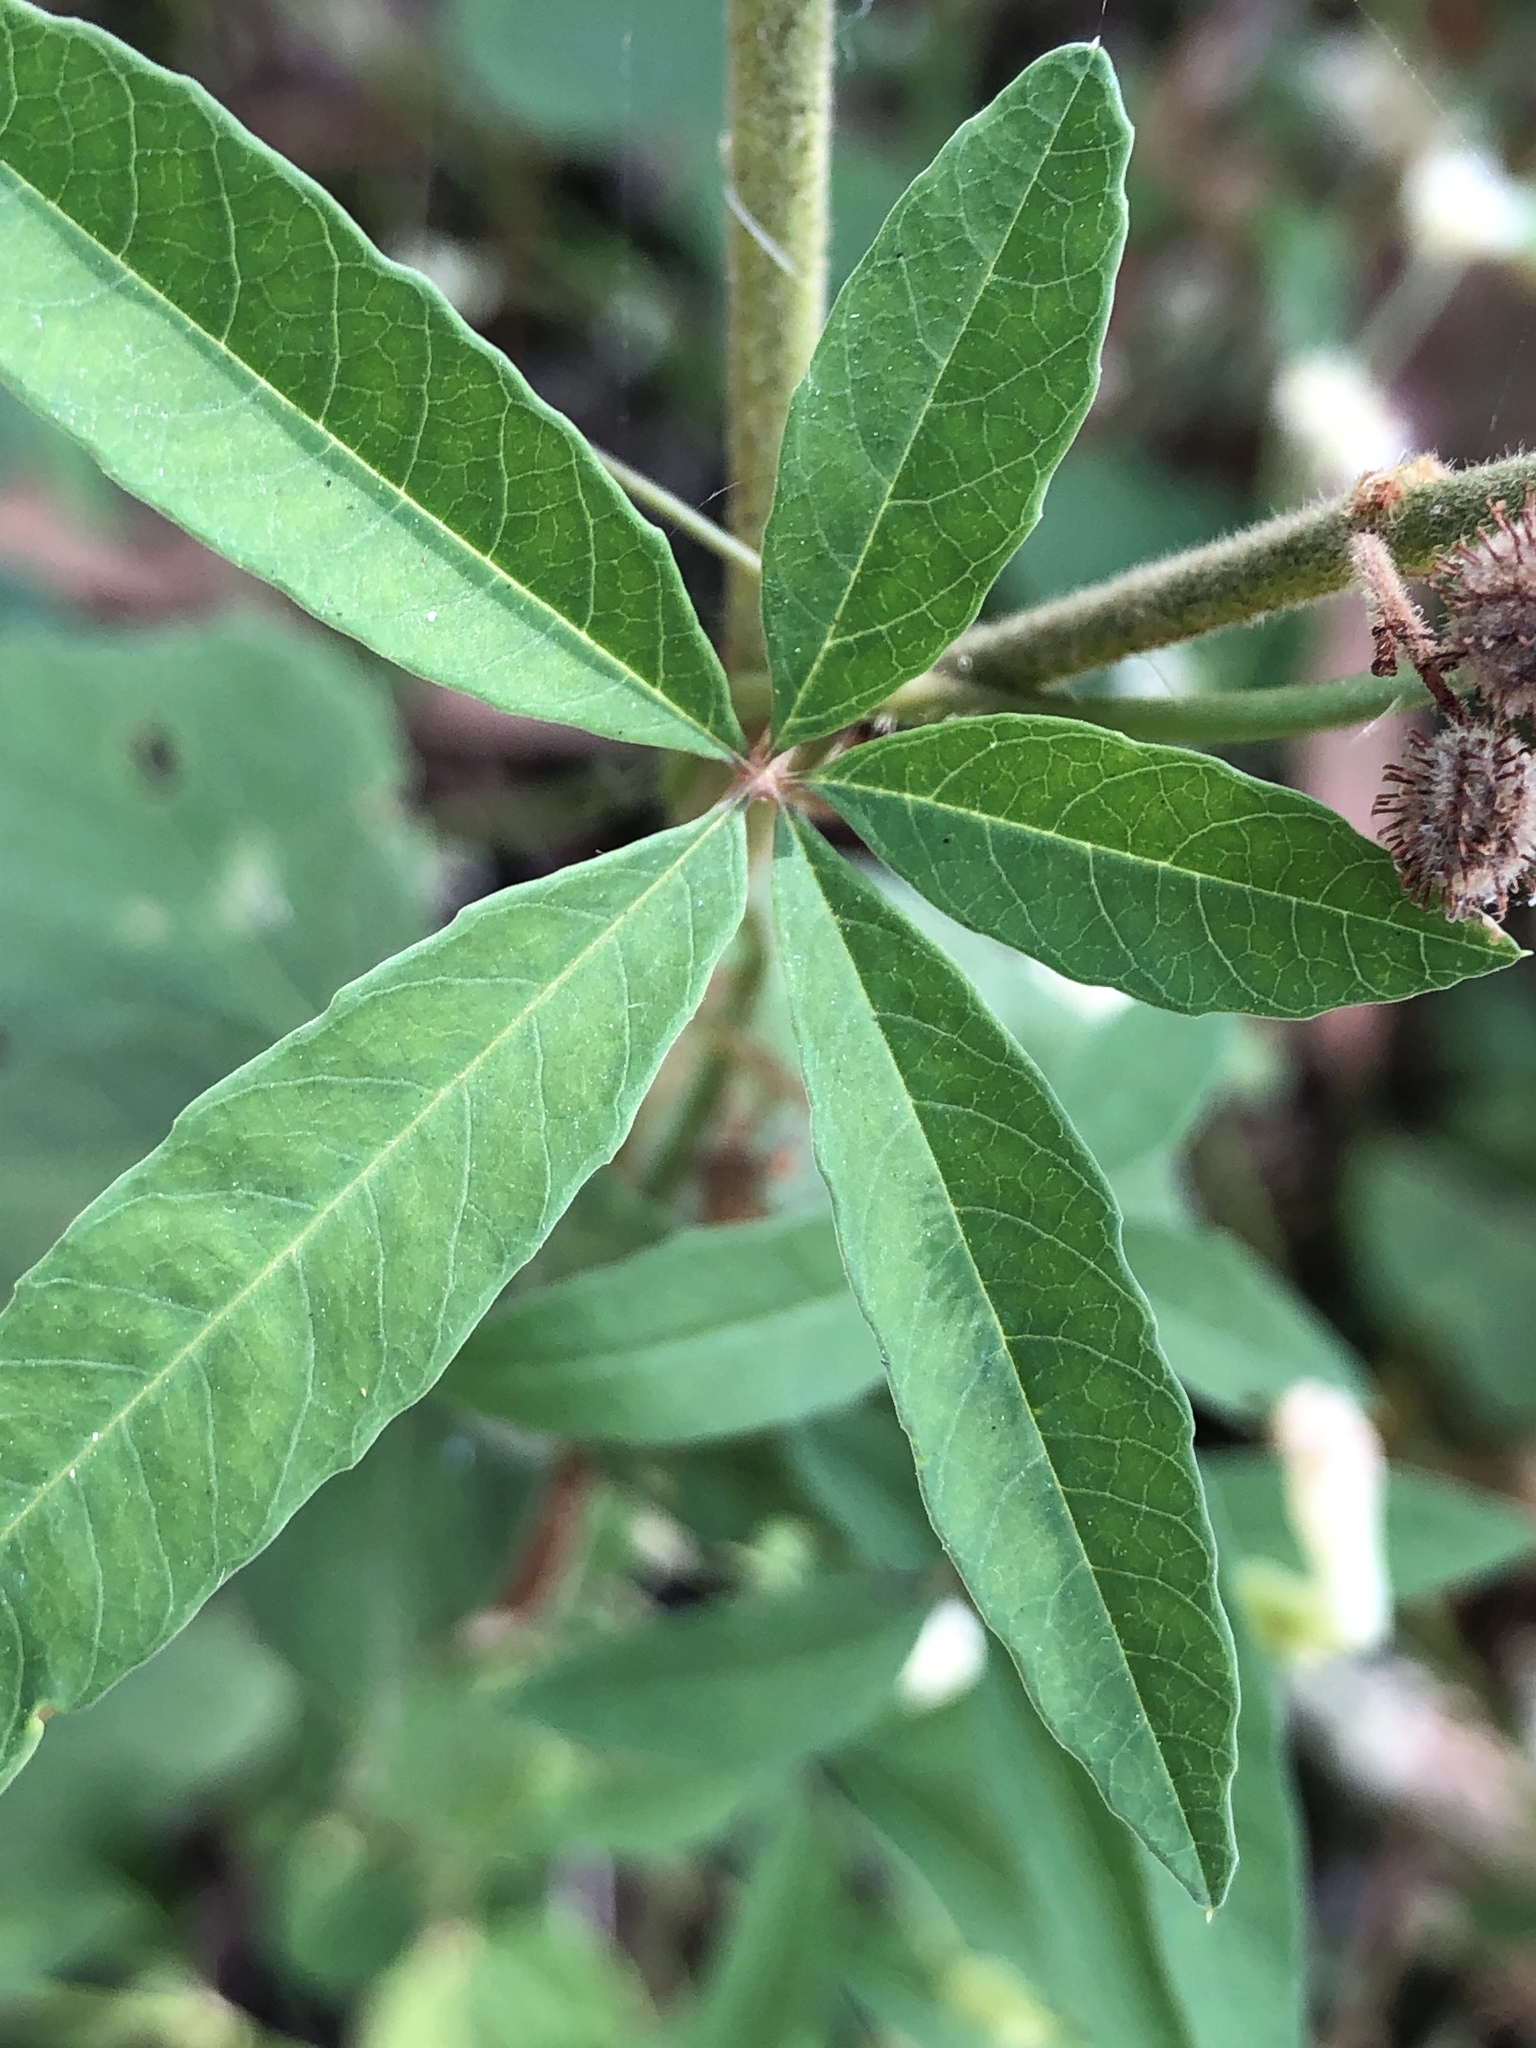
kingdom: Plantae
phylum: Tracheophyta
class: Magnoliopsida
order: Solanales
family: Convolvulaceae
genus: Distimake
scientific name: Distimake quinquefolius
